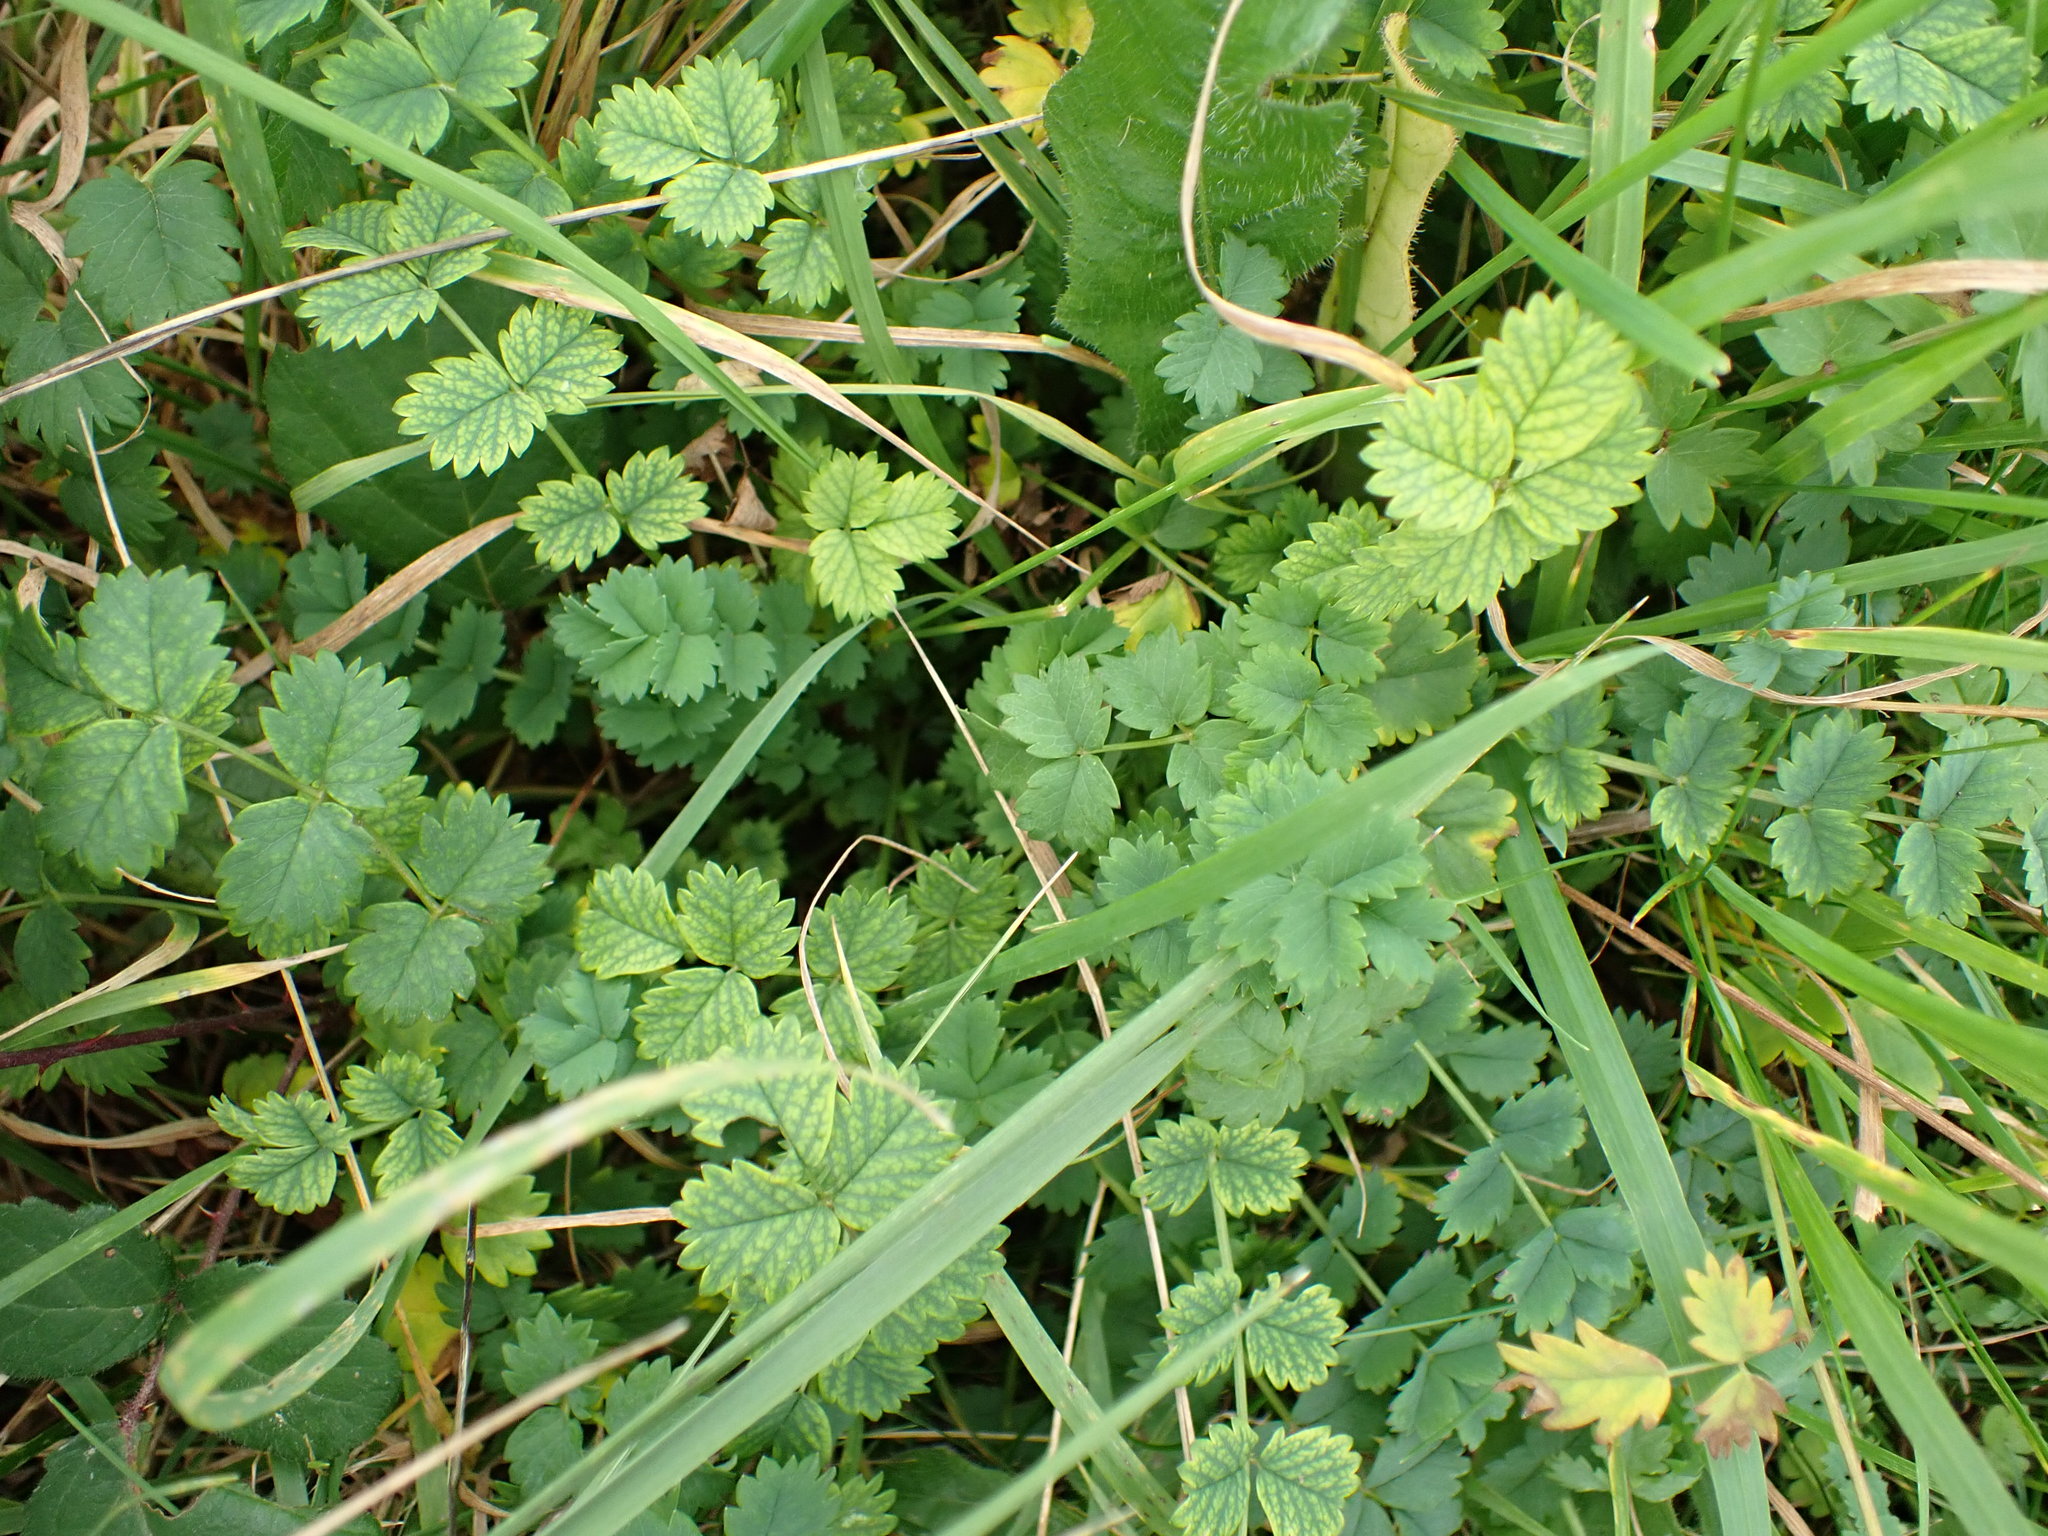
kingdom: Plantae
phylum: Tracheophyta
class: Magnoliopsida
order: Rosales
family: Rosaceae
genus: Poterium
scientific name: Poterium sanguisorba
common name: Salad burnet
